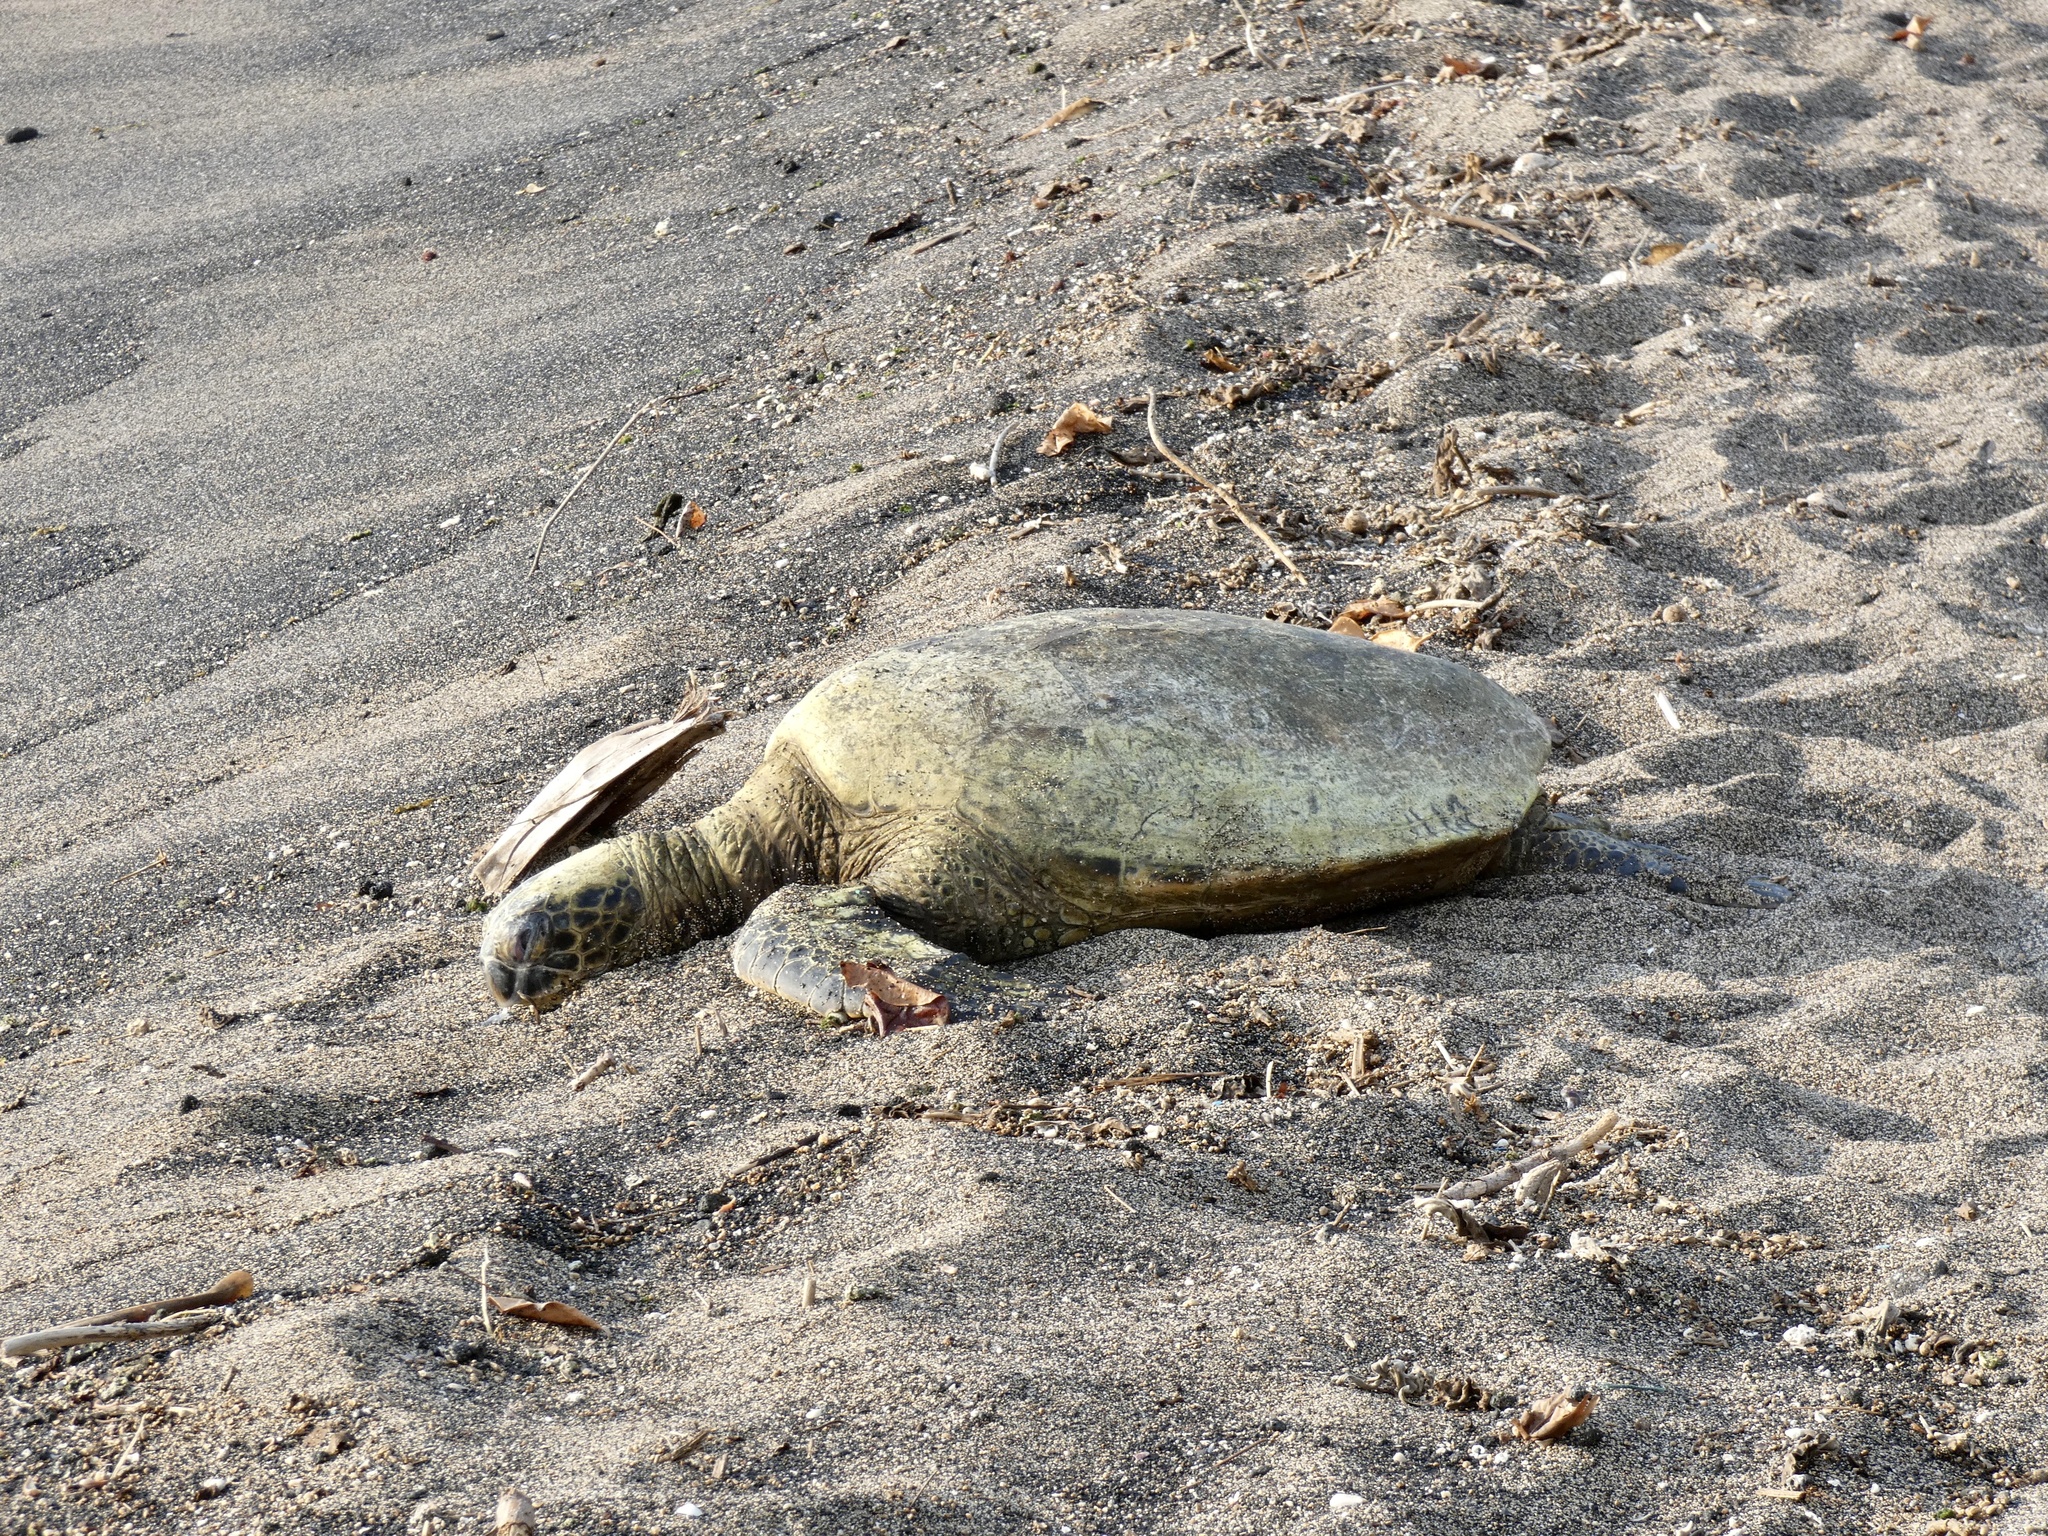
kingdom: Animalia
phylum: Chordata
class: Testudines
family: Cheloniidae
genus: Chelonia
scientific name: Chelonia mydas
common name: Green turtle
